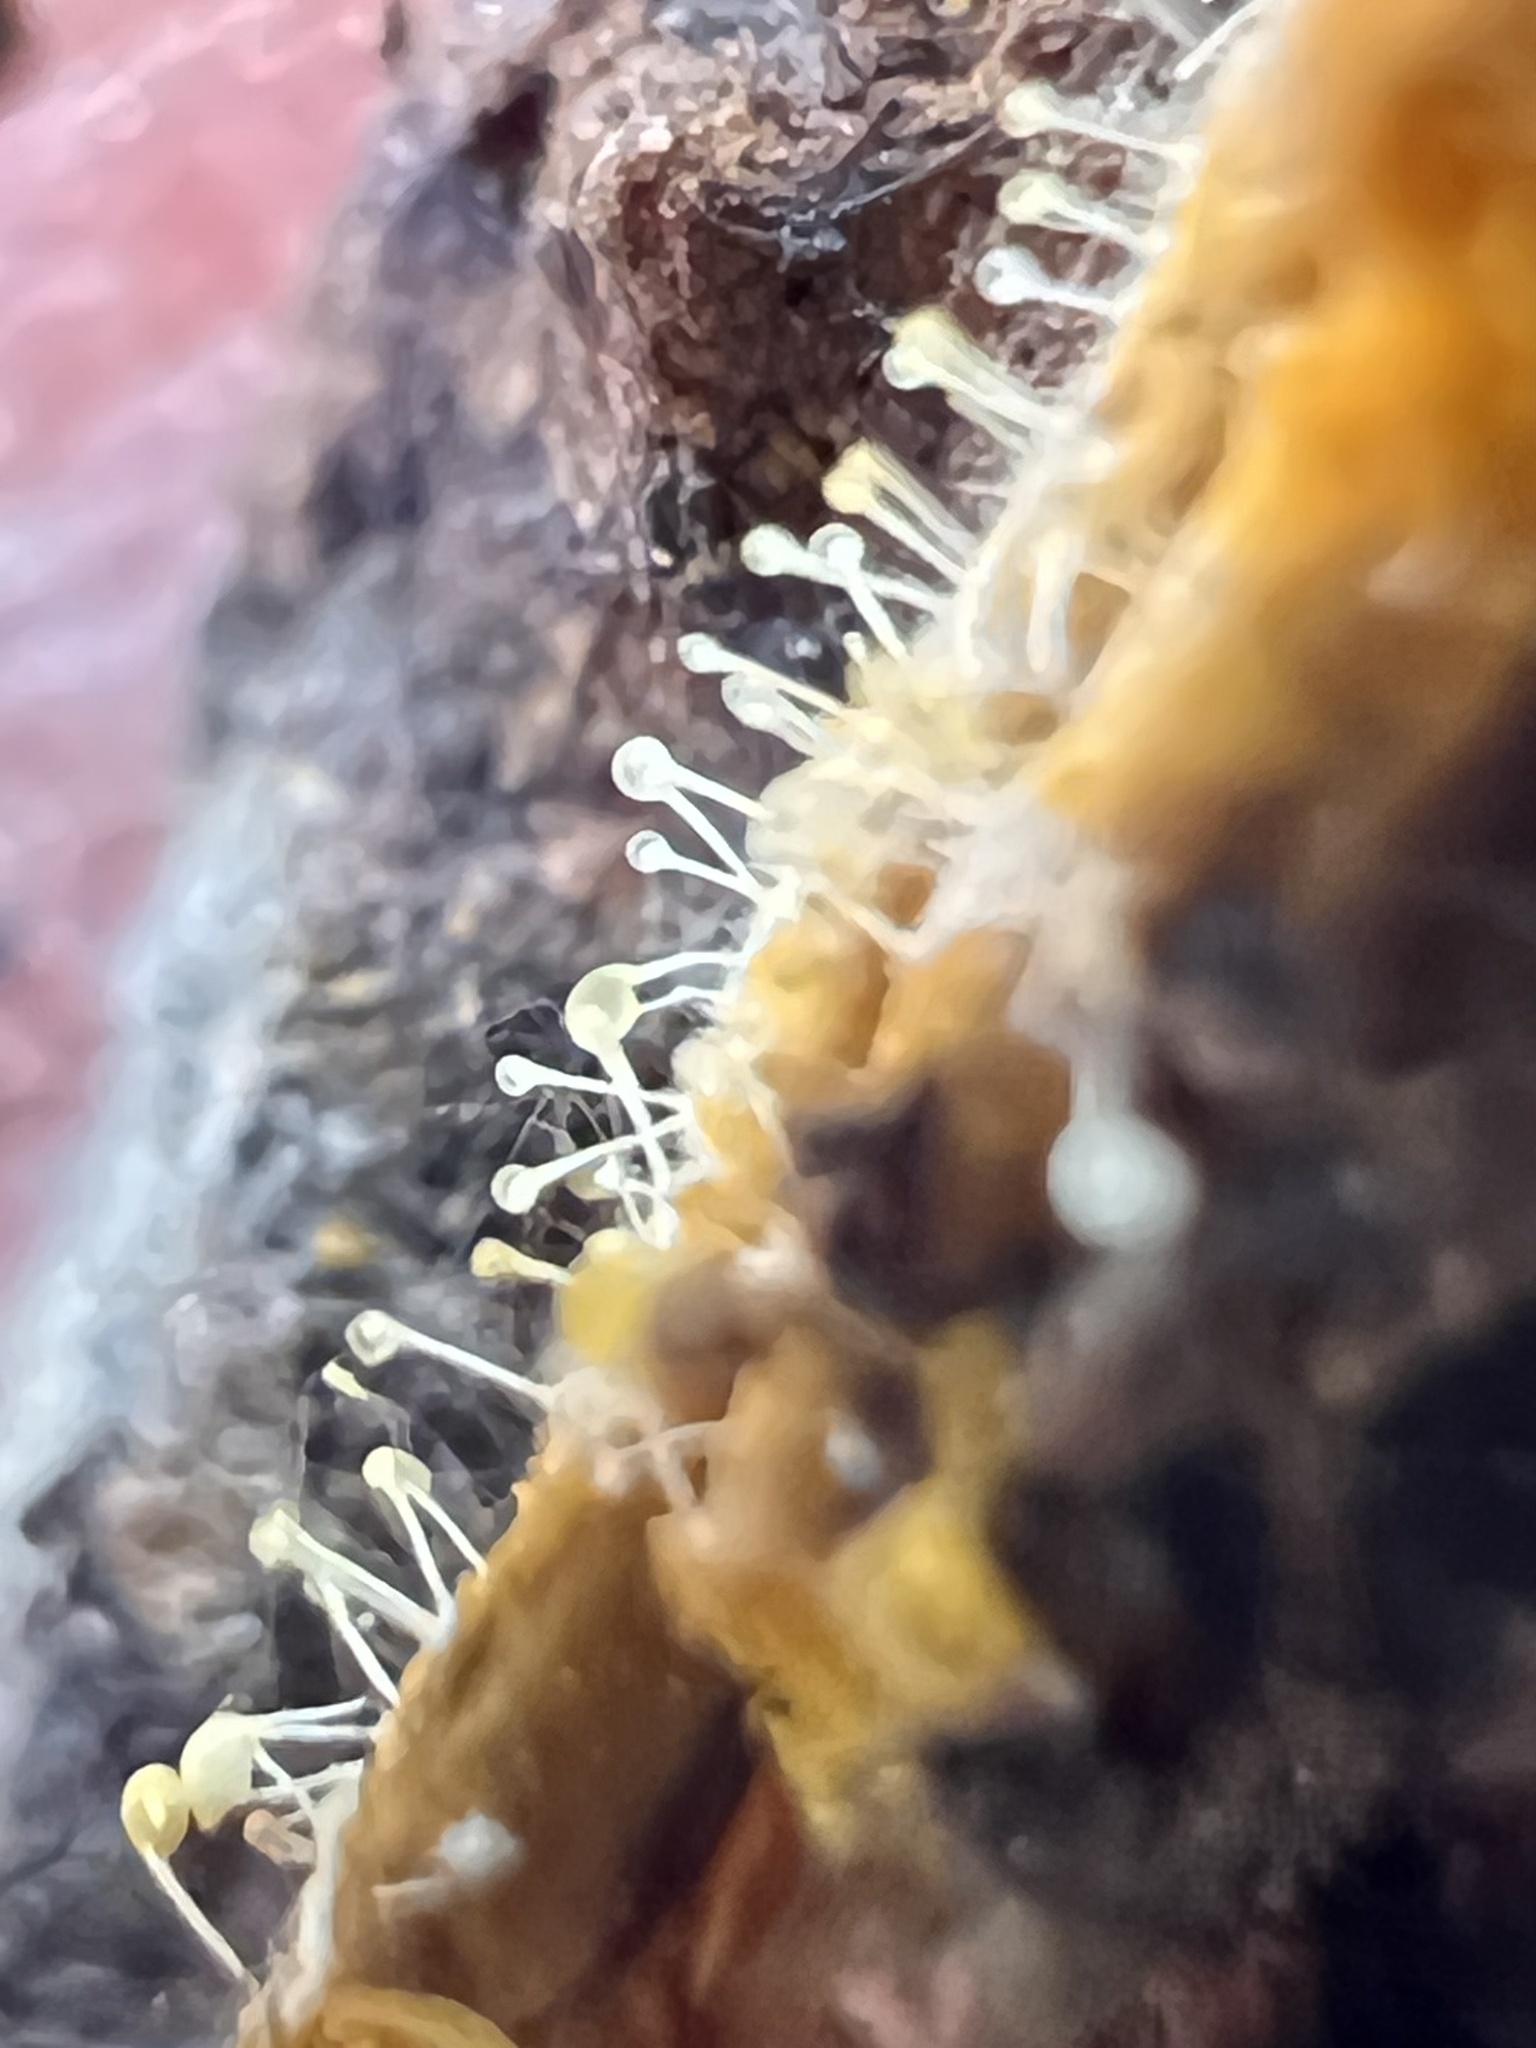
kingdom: Fungi
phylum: Ascomycota
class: Sordariomycetes
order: Hypocreales
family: Ophiocordycipitaceae
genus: Polycephalomyces
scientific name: Polycephalomyces tomentosus
